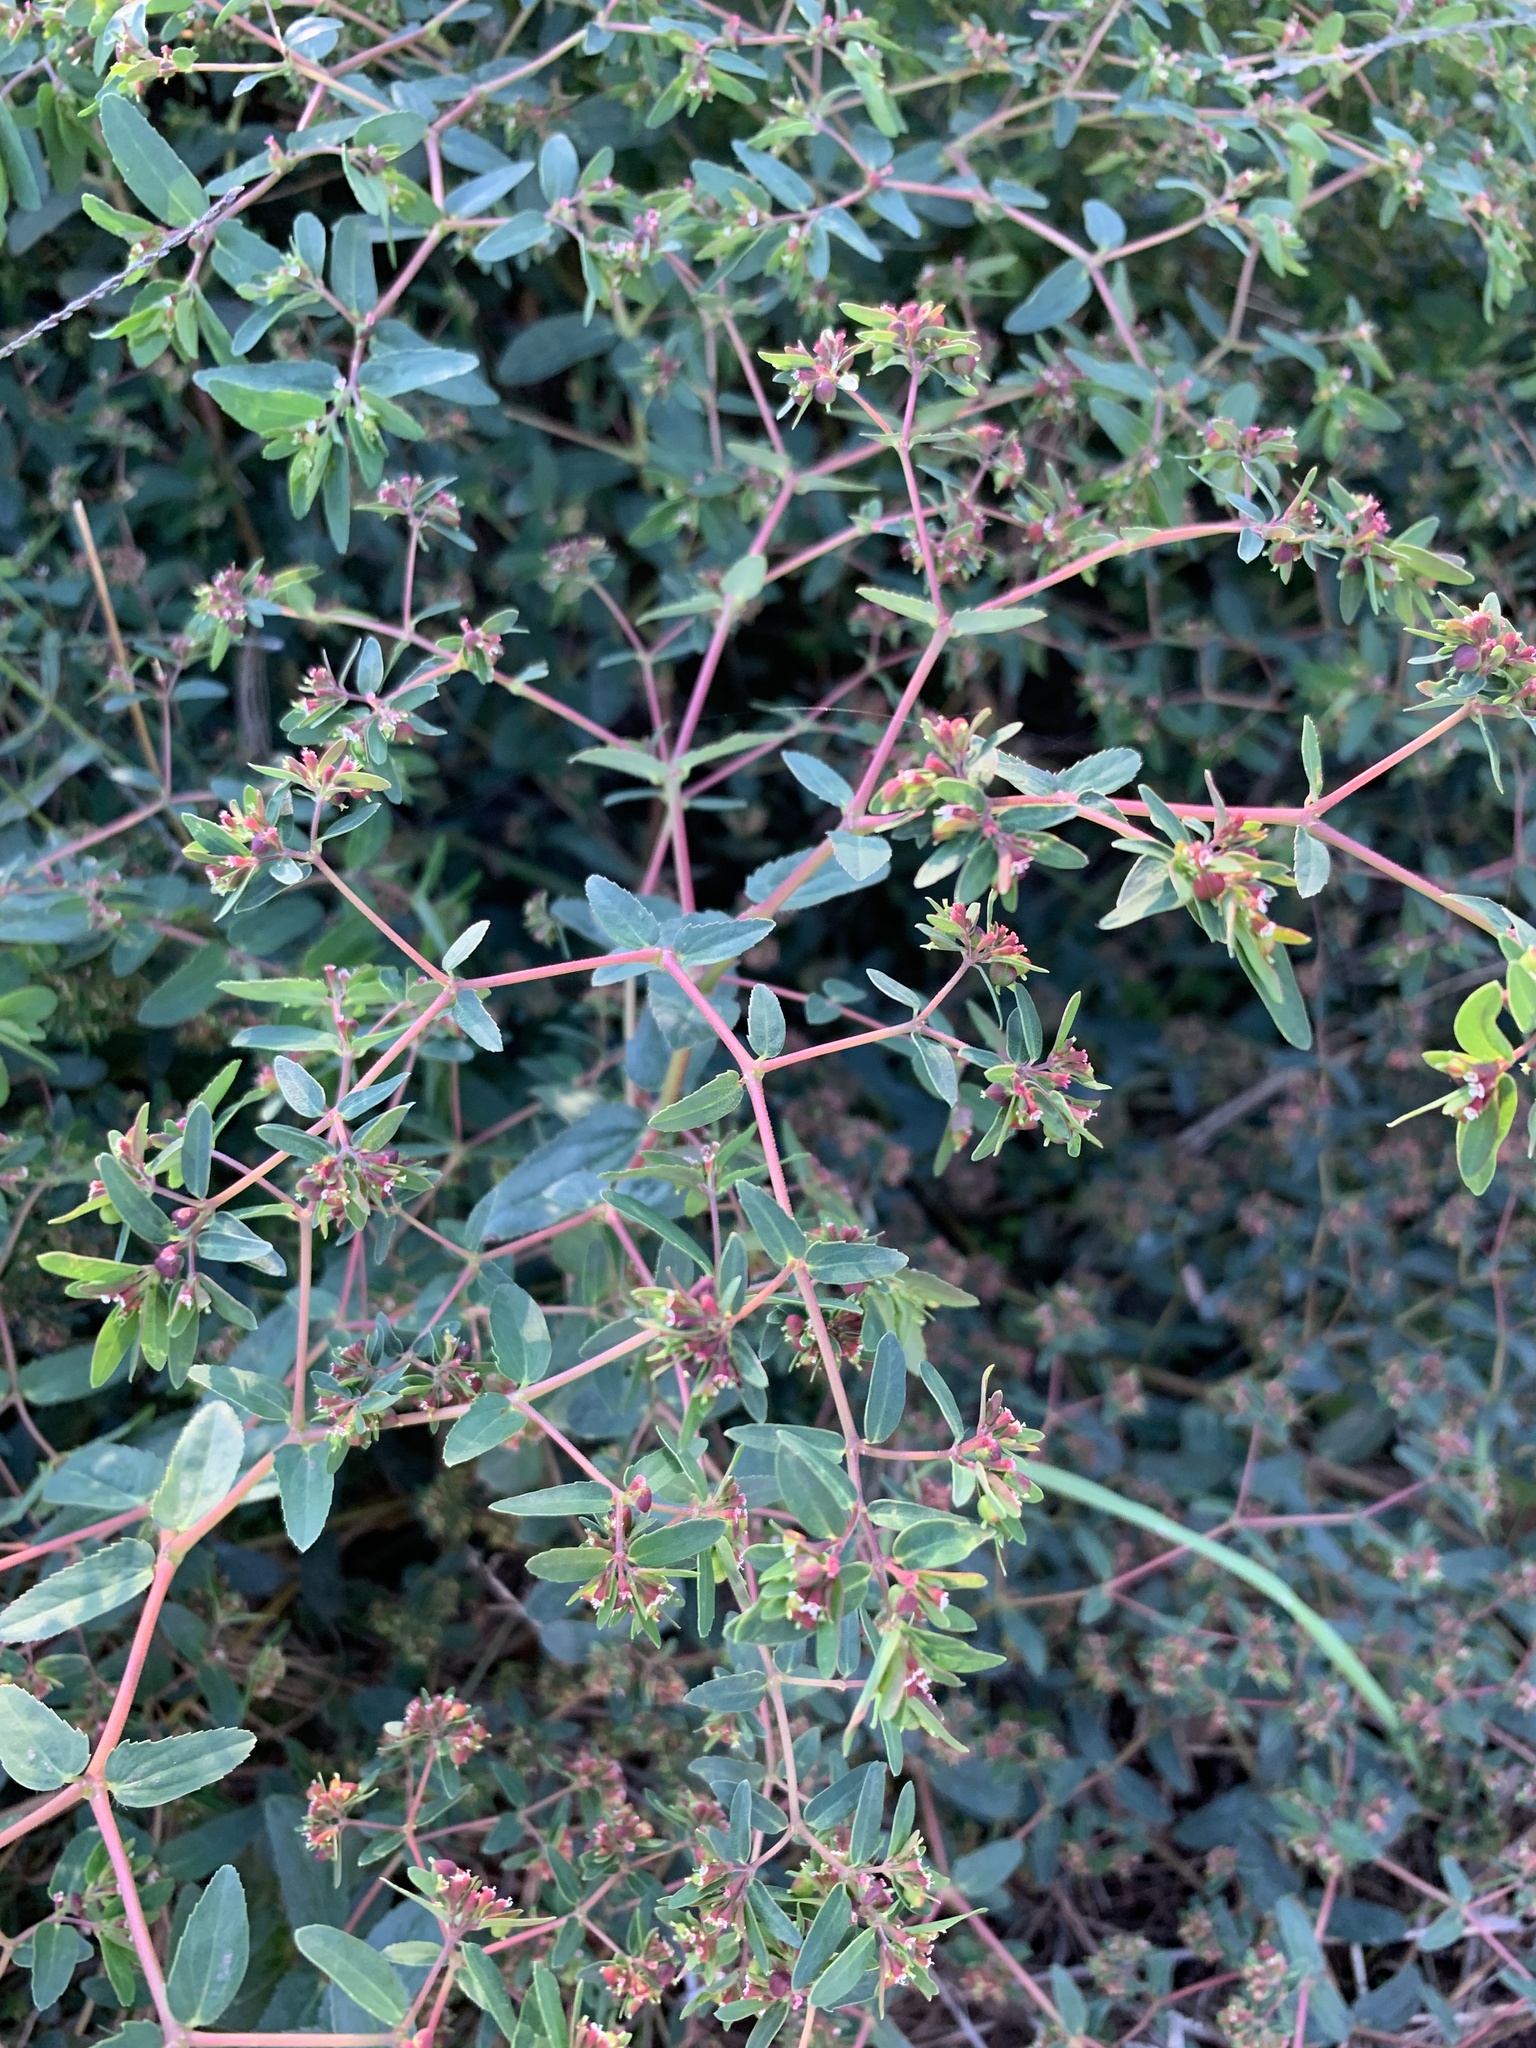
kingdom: Plantae
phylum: Tracheophyta
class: Magnoliopsida
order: Malpighiales
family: Euphorbiaceae
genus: Euphorbia
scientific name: Euphorbia nutans
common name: Eyebane
